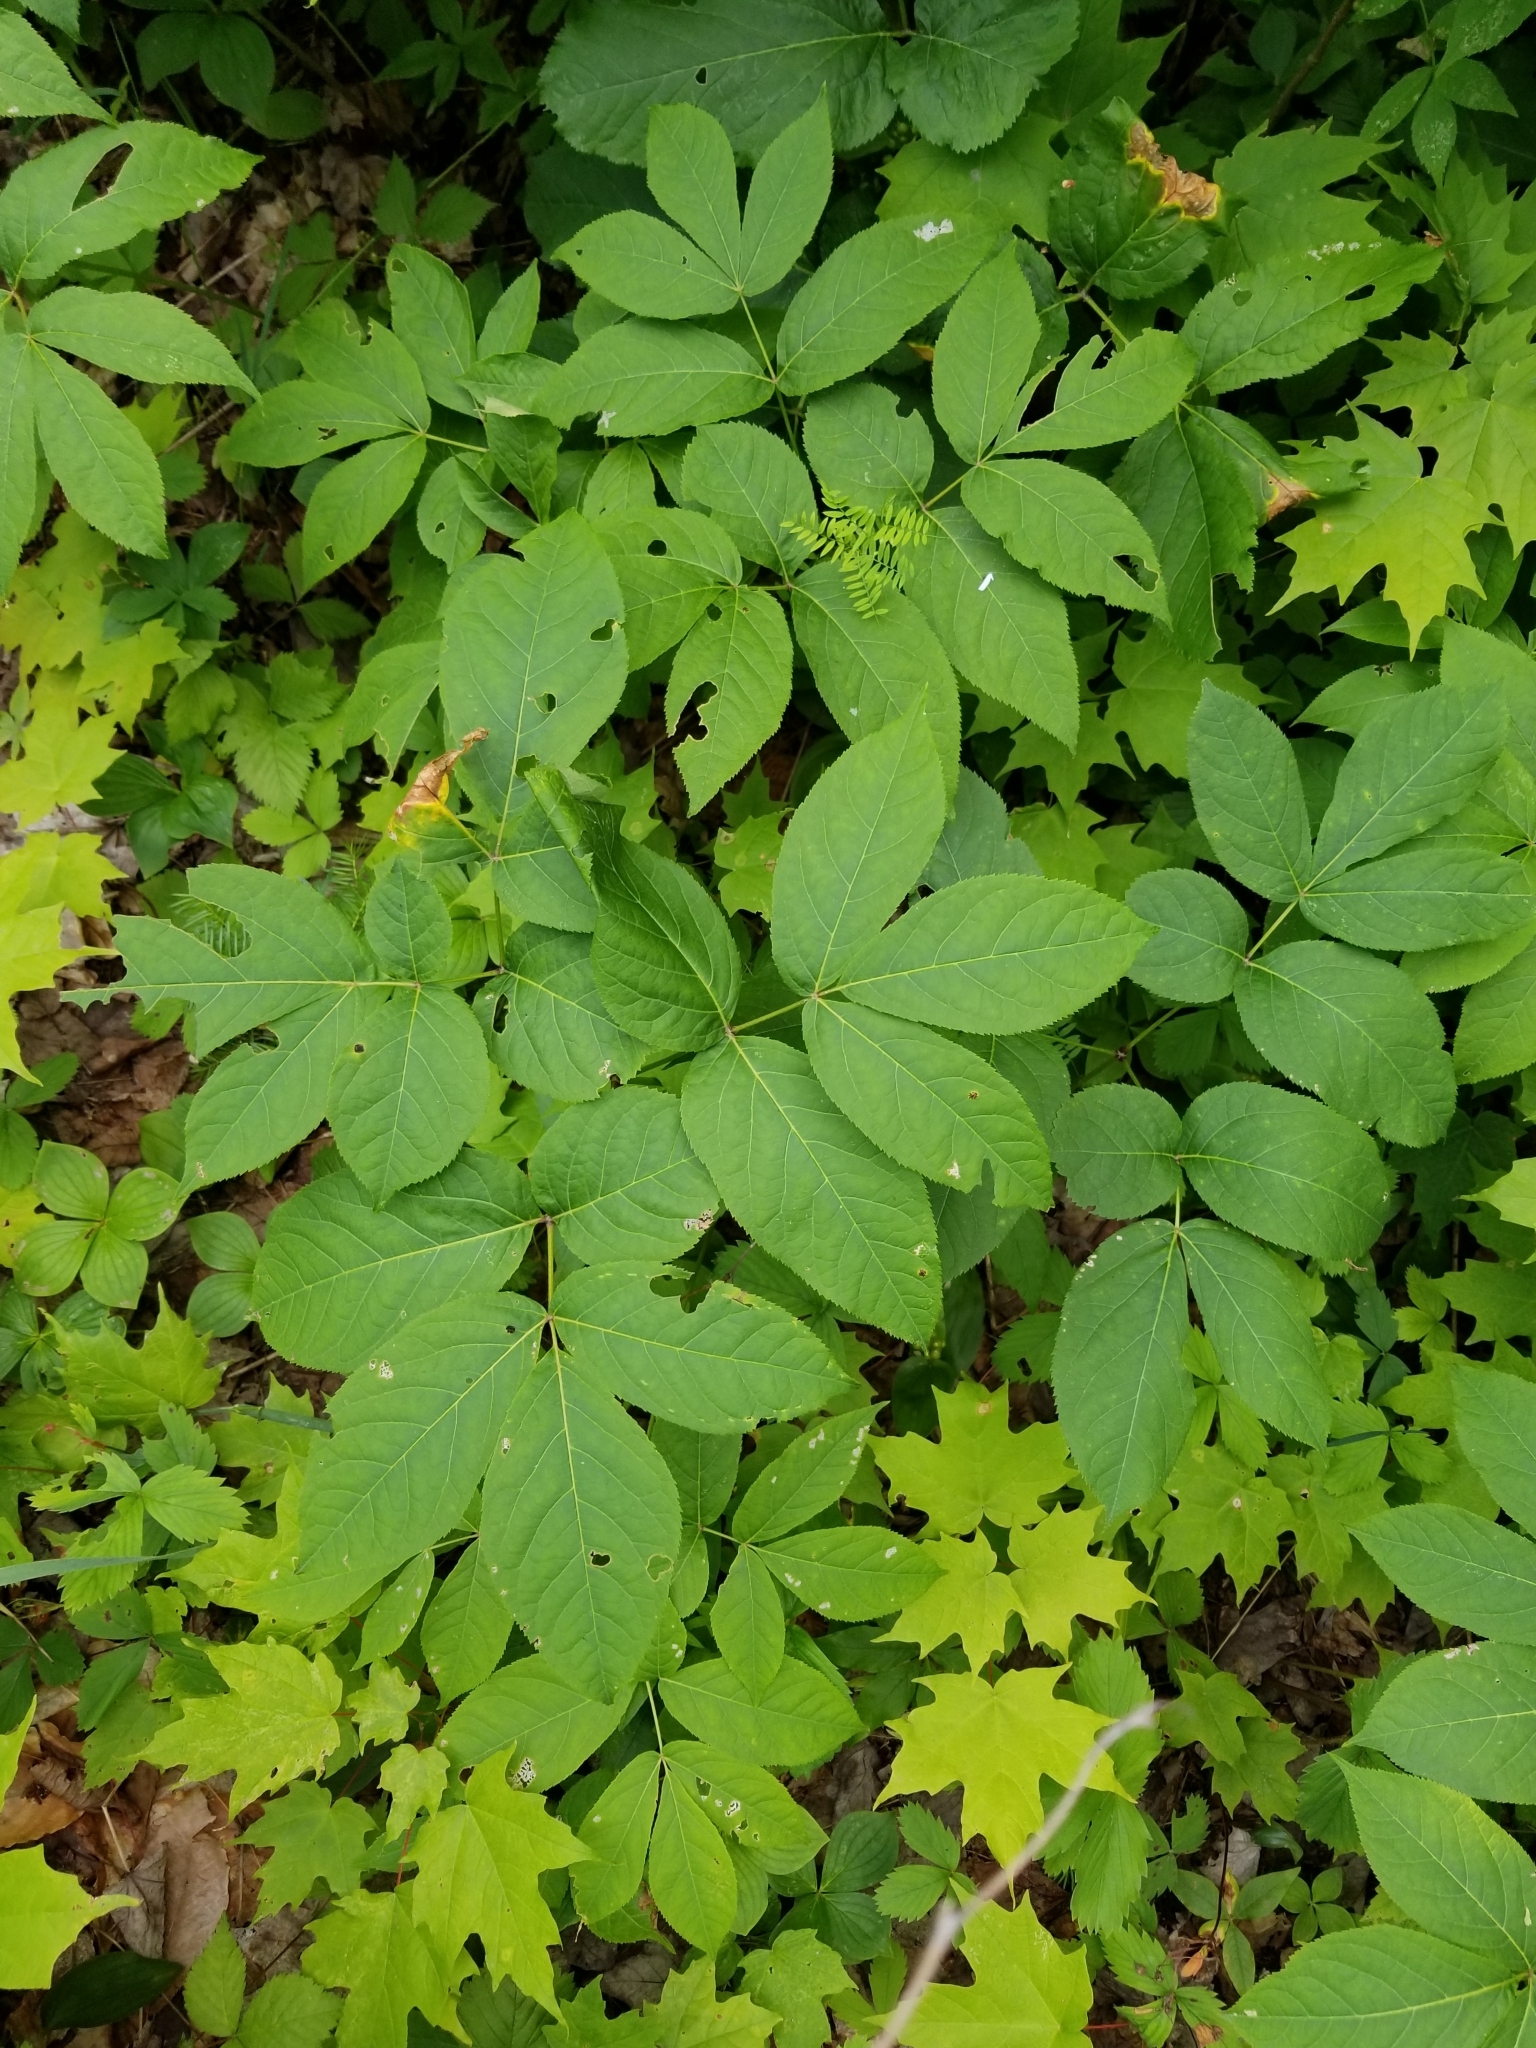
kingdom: Plantae
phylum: Tracheophyta
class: Magnoliopsida
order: Apiales
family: Araliaceae
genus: Aralia
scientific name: Aralia nudicaulis
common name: Wild sarsaparilla
